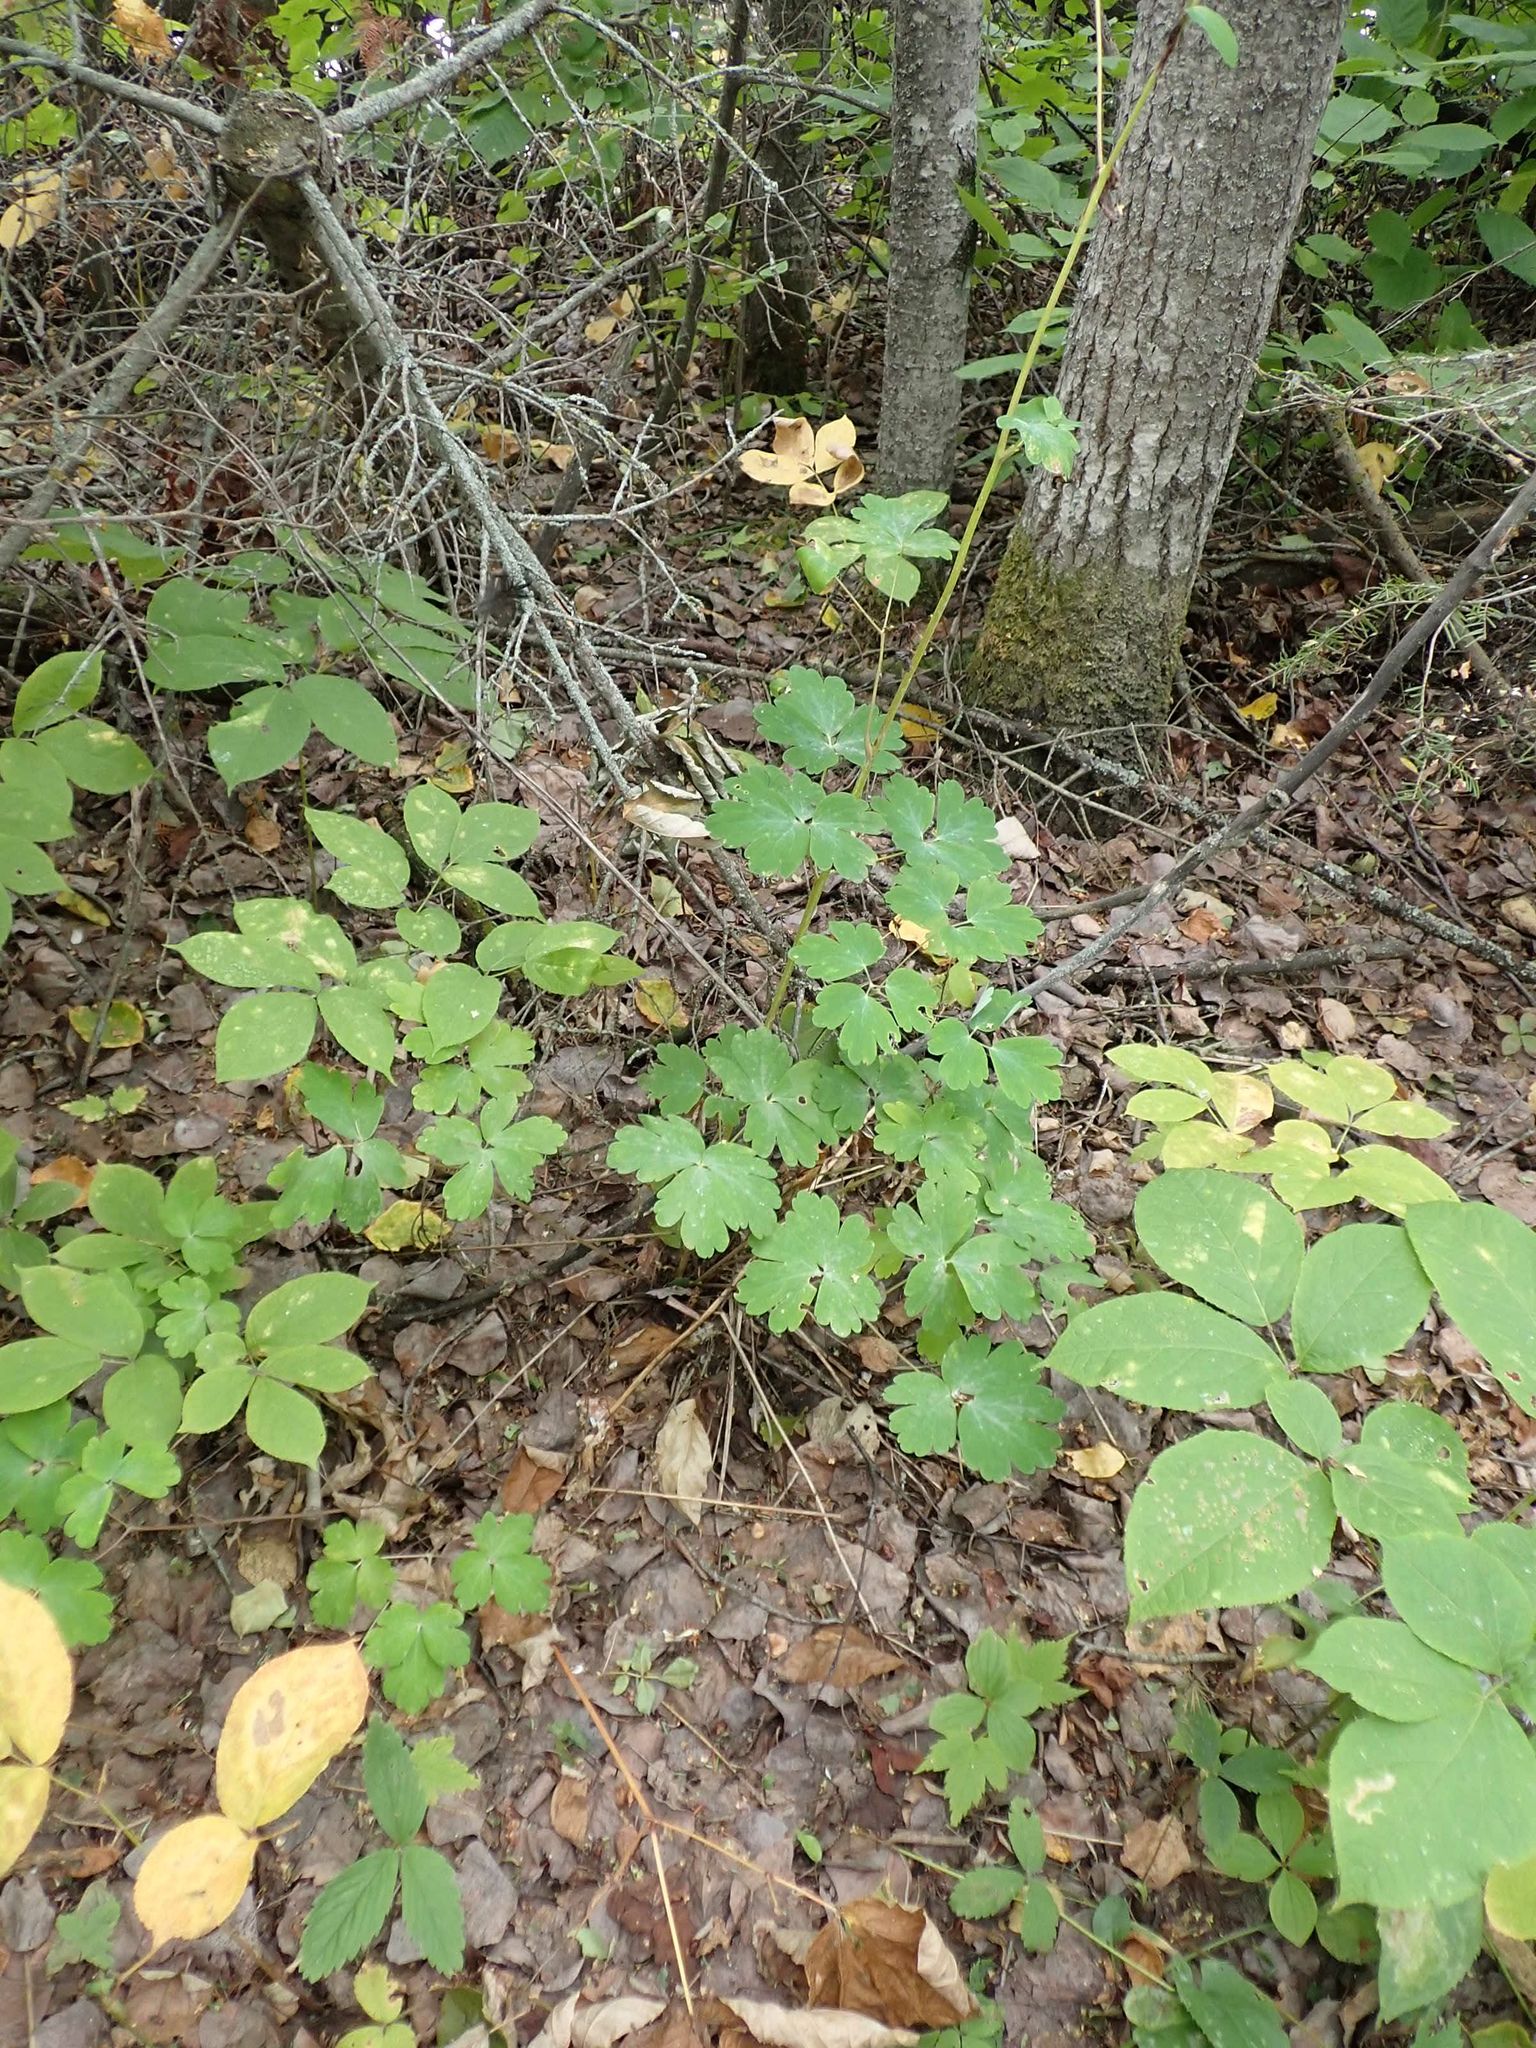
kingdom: Plantae
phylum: Tracheophyta
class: Magnoliopsida
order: Ranunculales
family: Ranunculaceae
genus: Aquilegia
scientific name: Aquilegia canadensis
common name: American columbine
